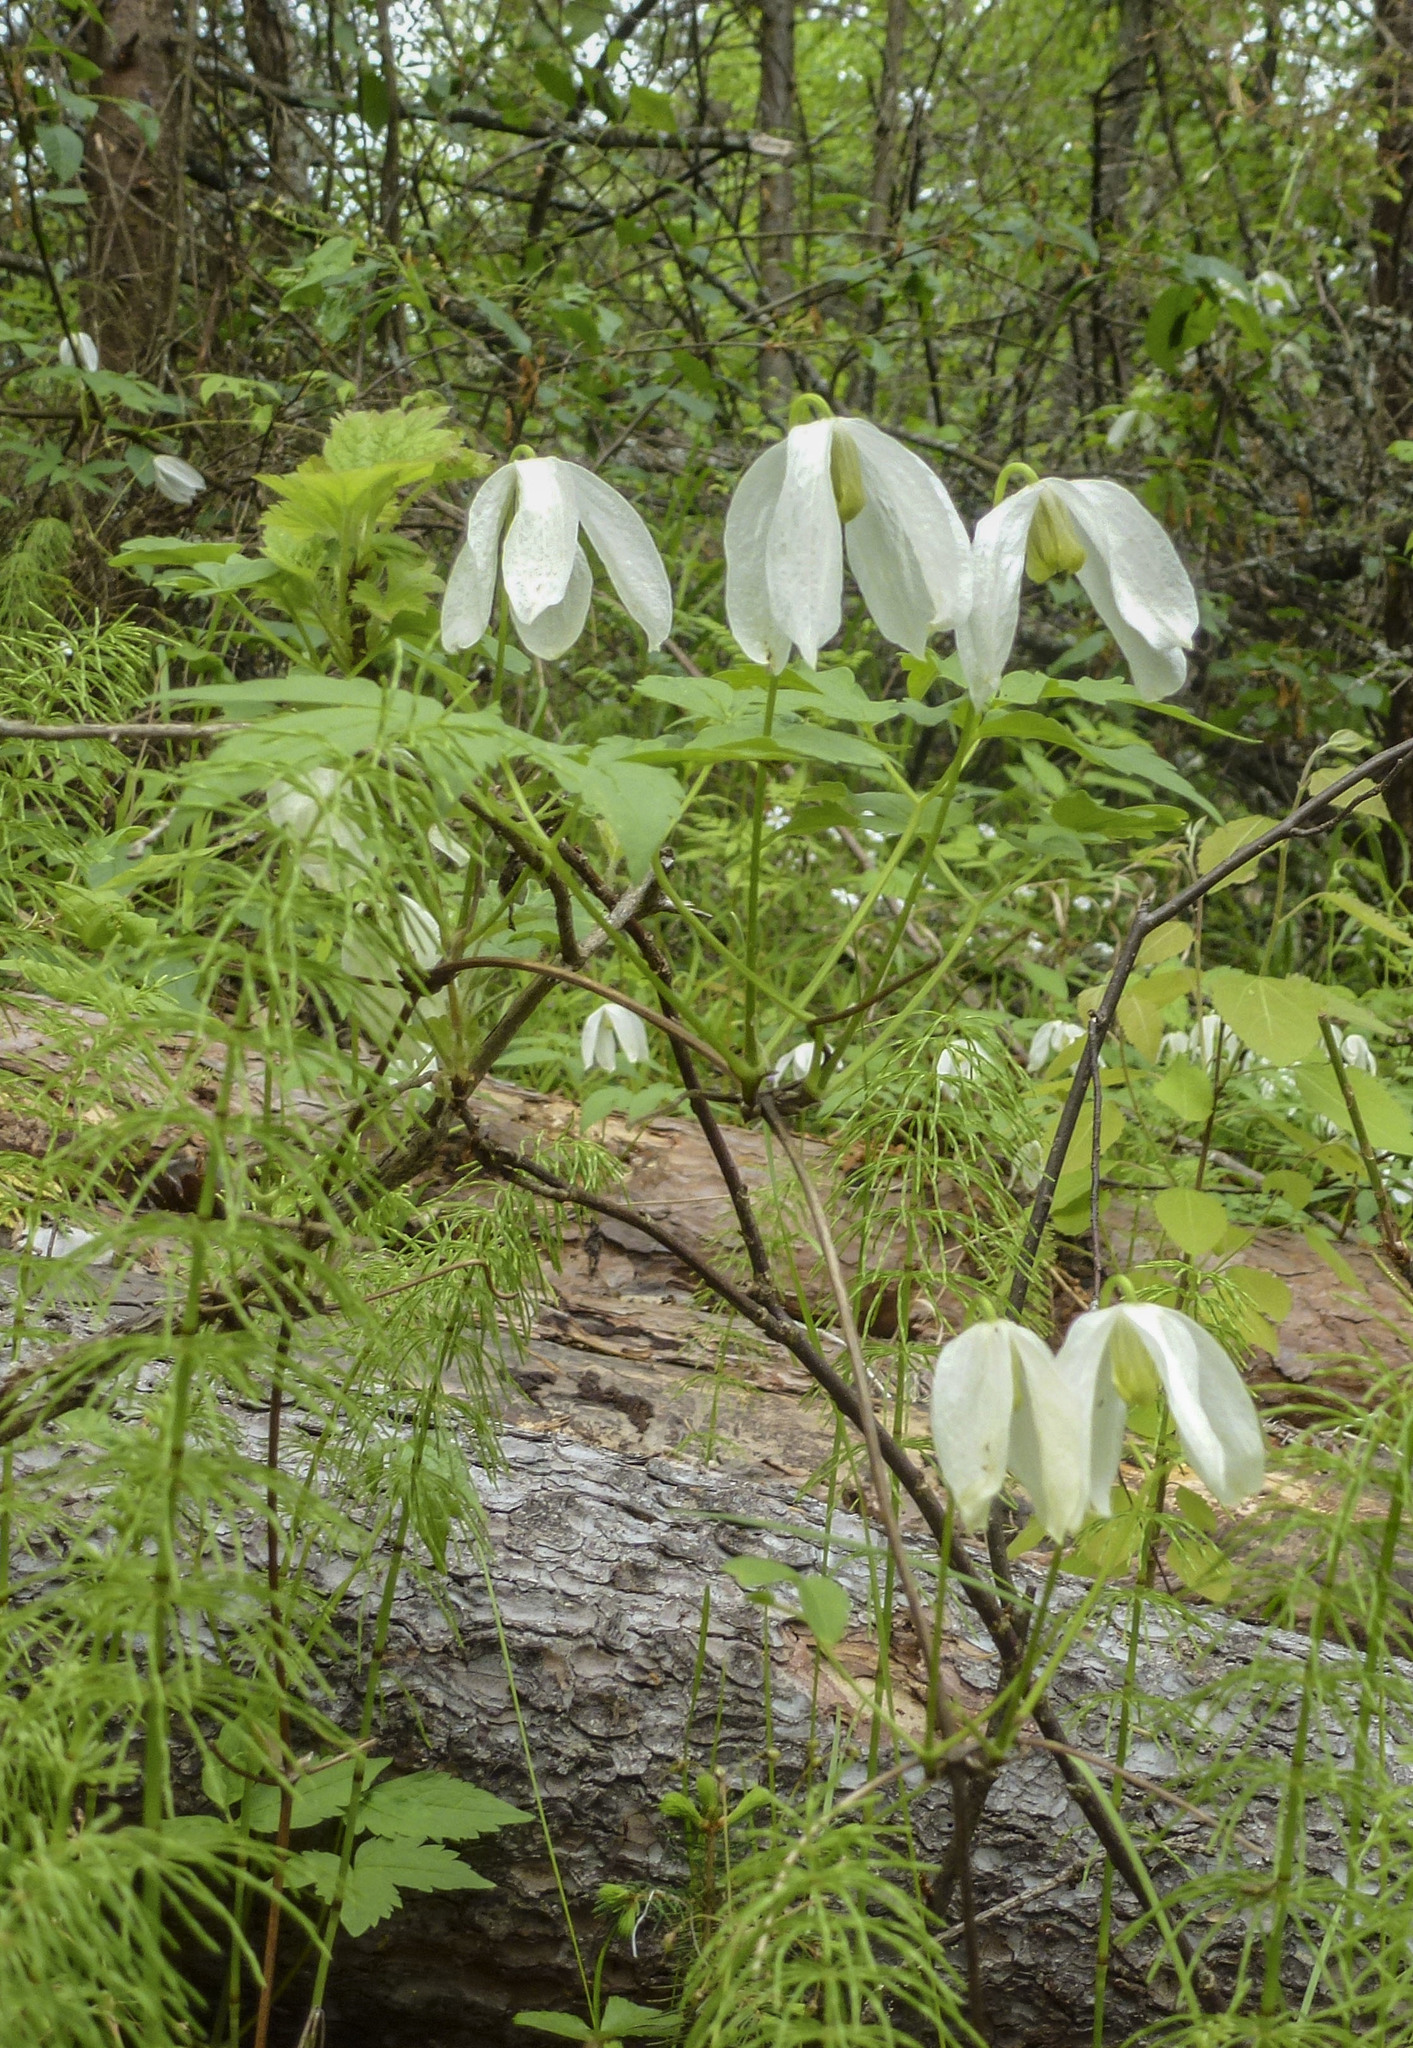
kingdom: Plantae
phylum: Tracheophyta
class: Magnoliopsida
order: Ranunculales
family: Ranunculaceae
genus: Clematis
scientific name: Clematis sibirica
